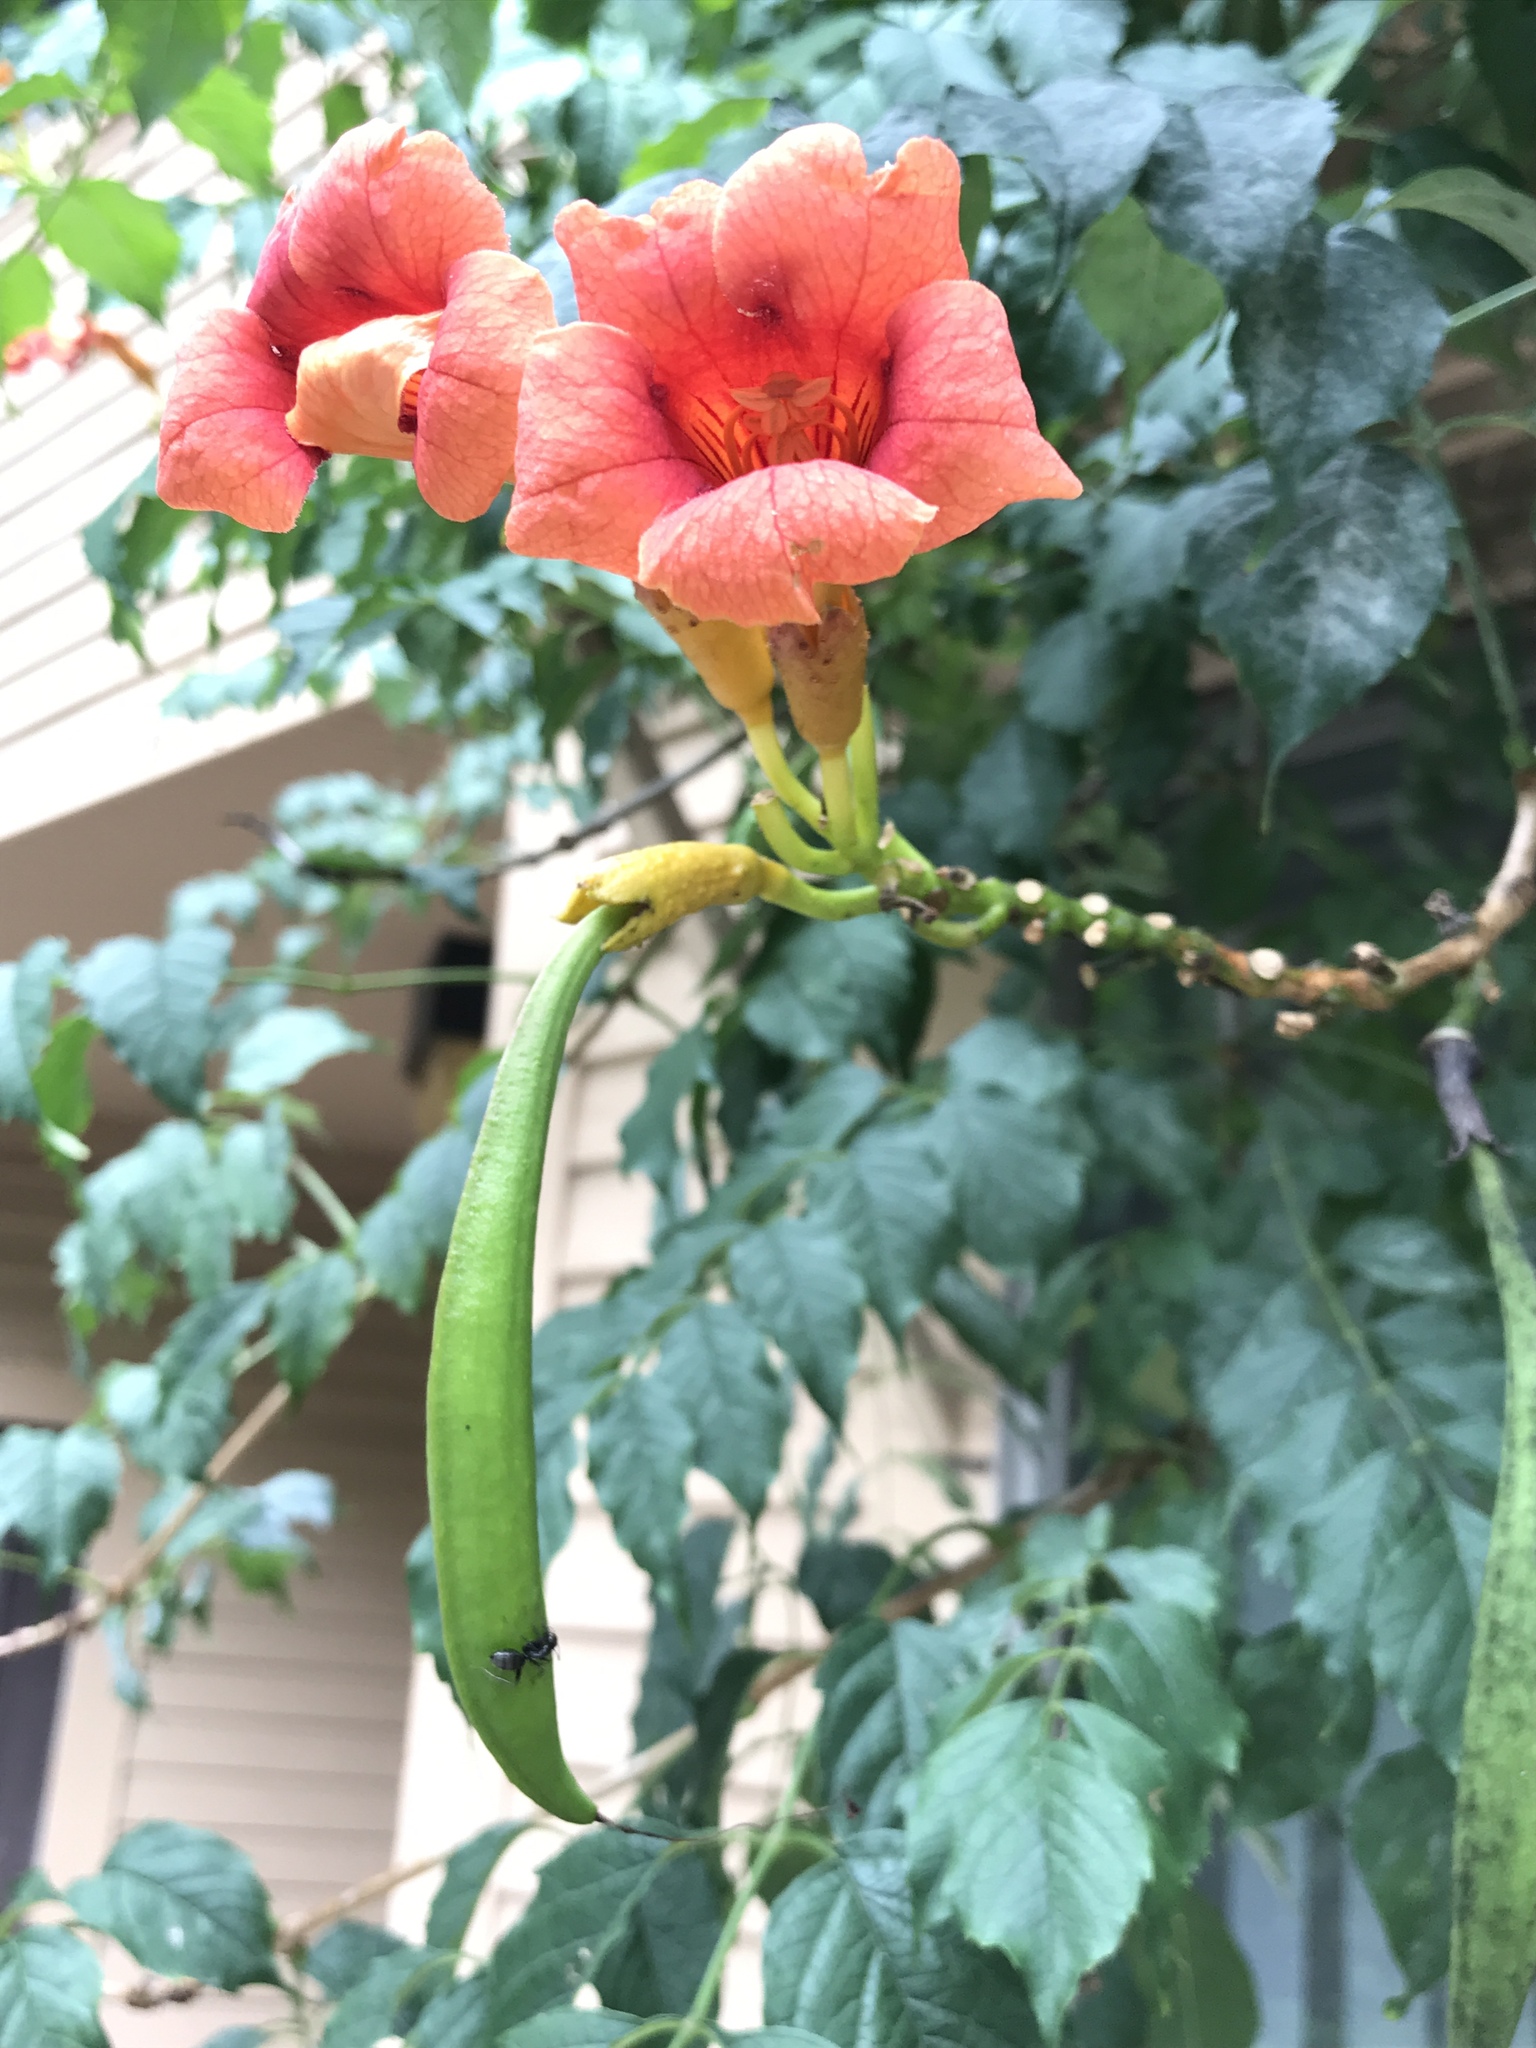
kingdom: Plantae
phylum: Tracheophyta
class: Magnoliopsida
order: Lamiales
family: Bignoniaceae
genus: Campsis
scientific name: Campsis radicans
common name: Trumpet-creeper
